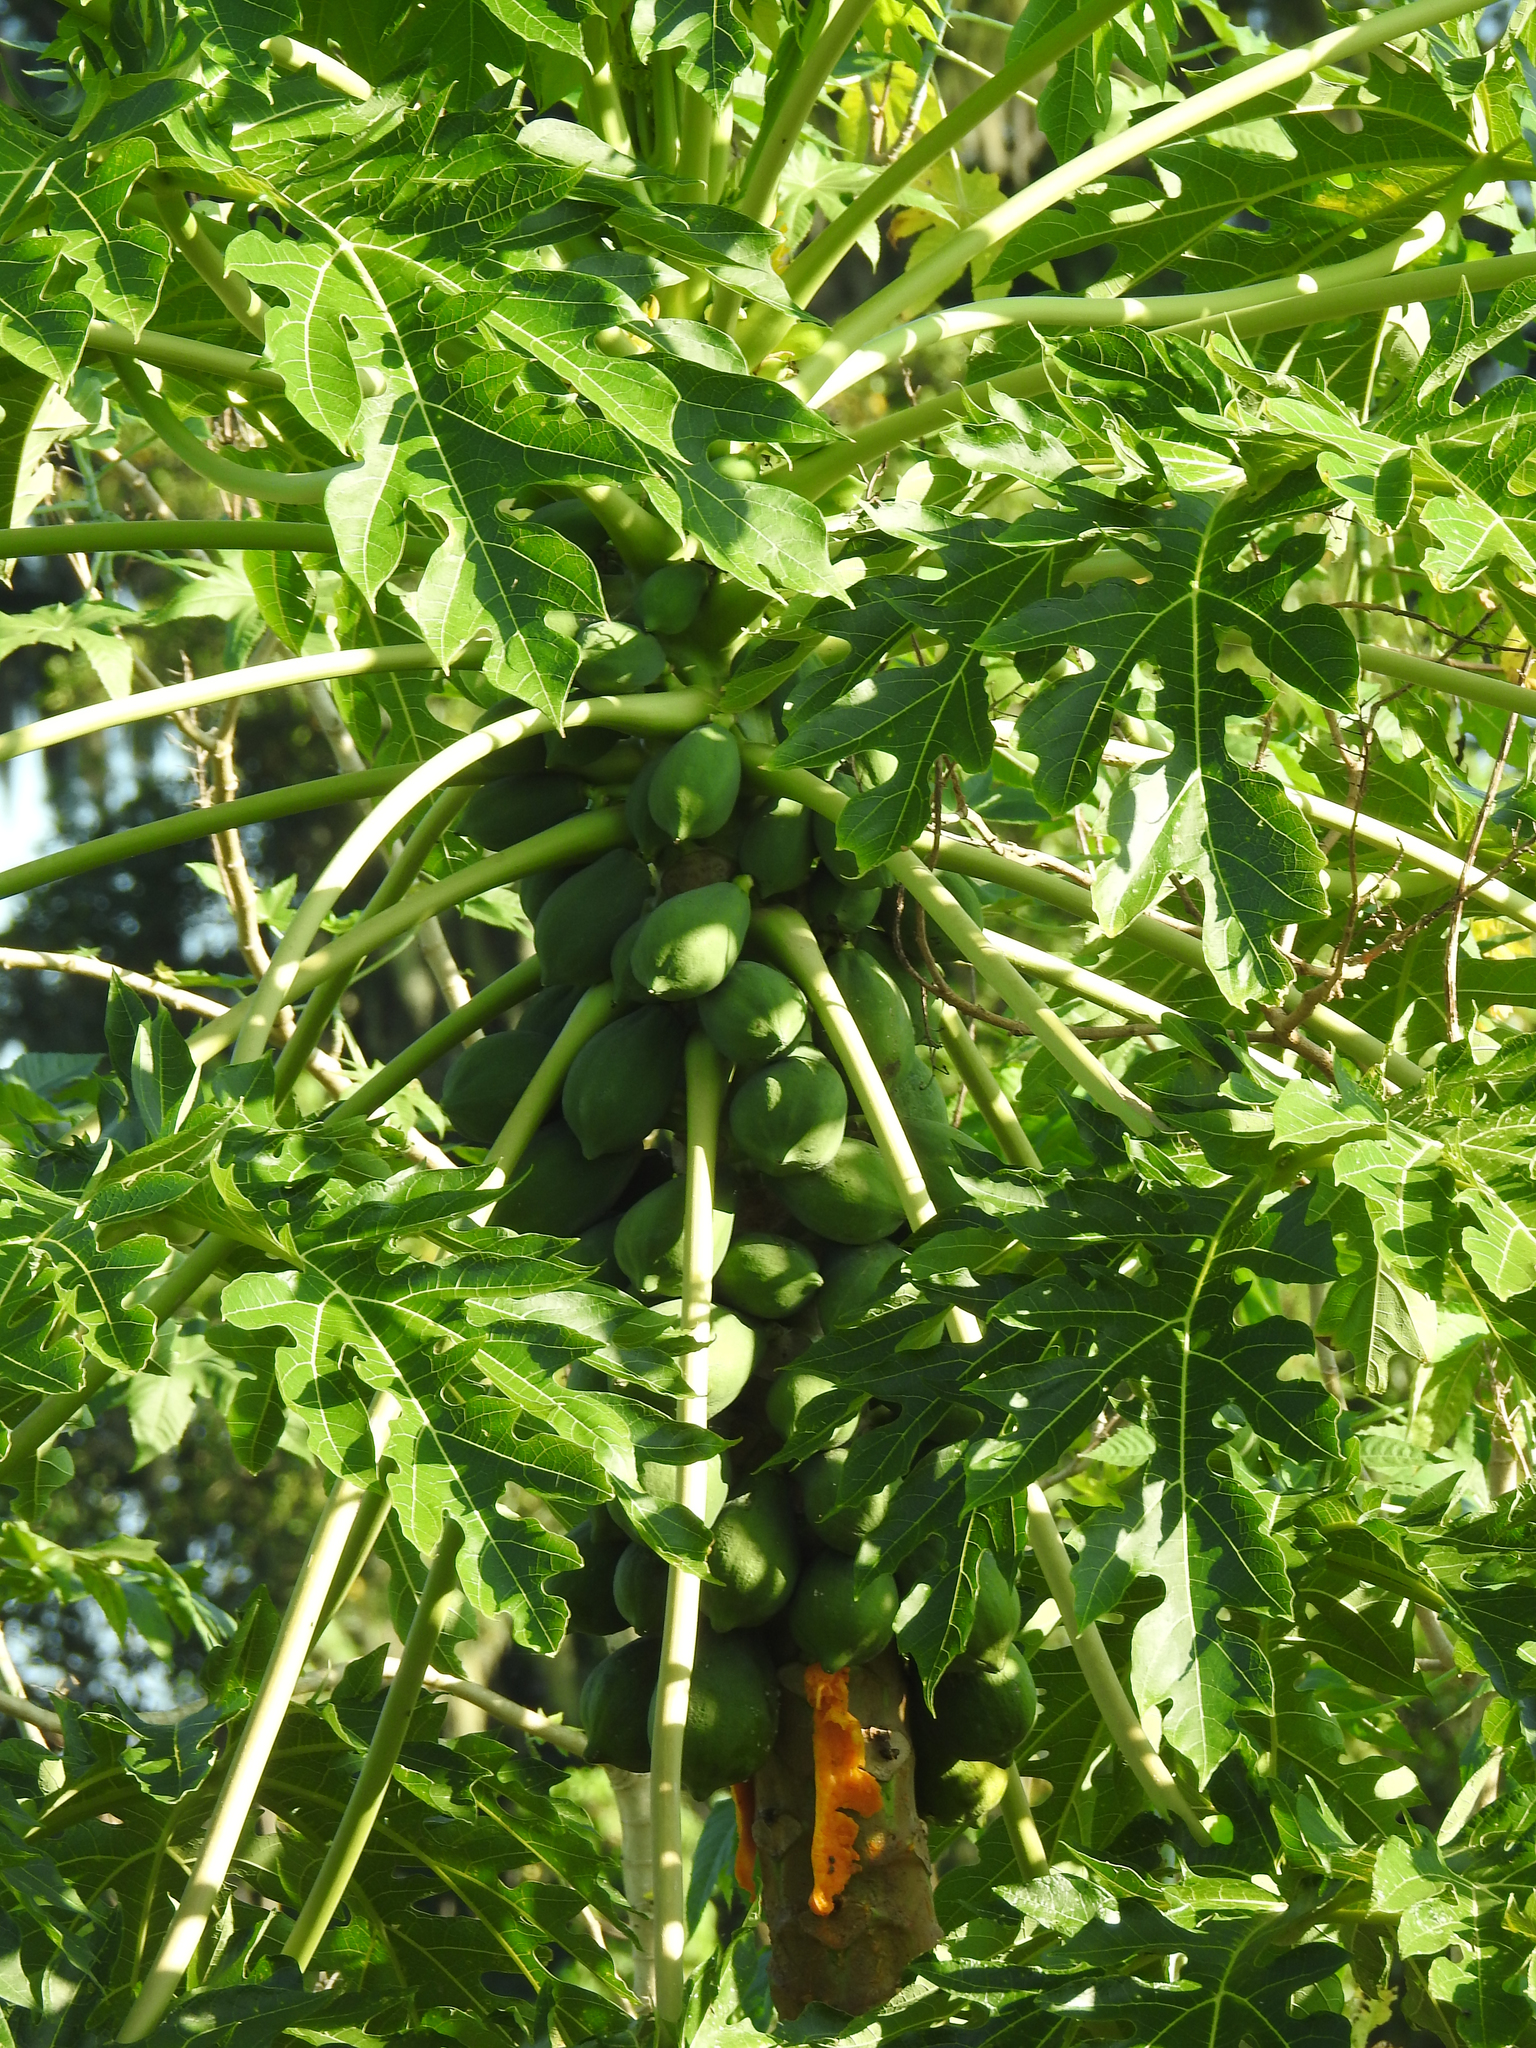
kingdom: Plantae
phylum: Tracheophyta
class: Magnoliopsida
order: Brassicales
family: Caricaceae
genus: Carica
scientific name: Carica papaya
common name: Papaya
